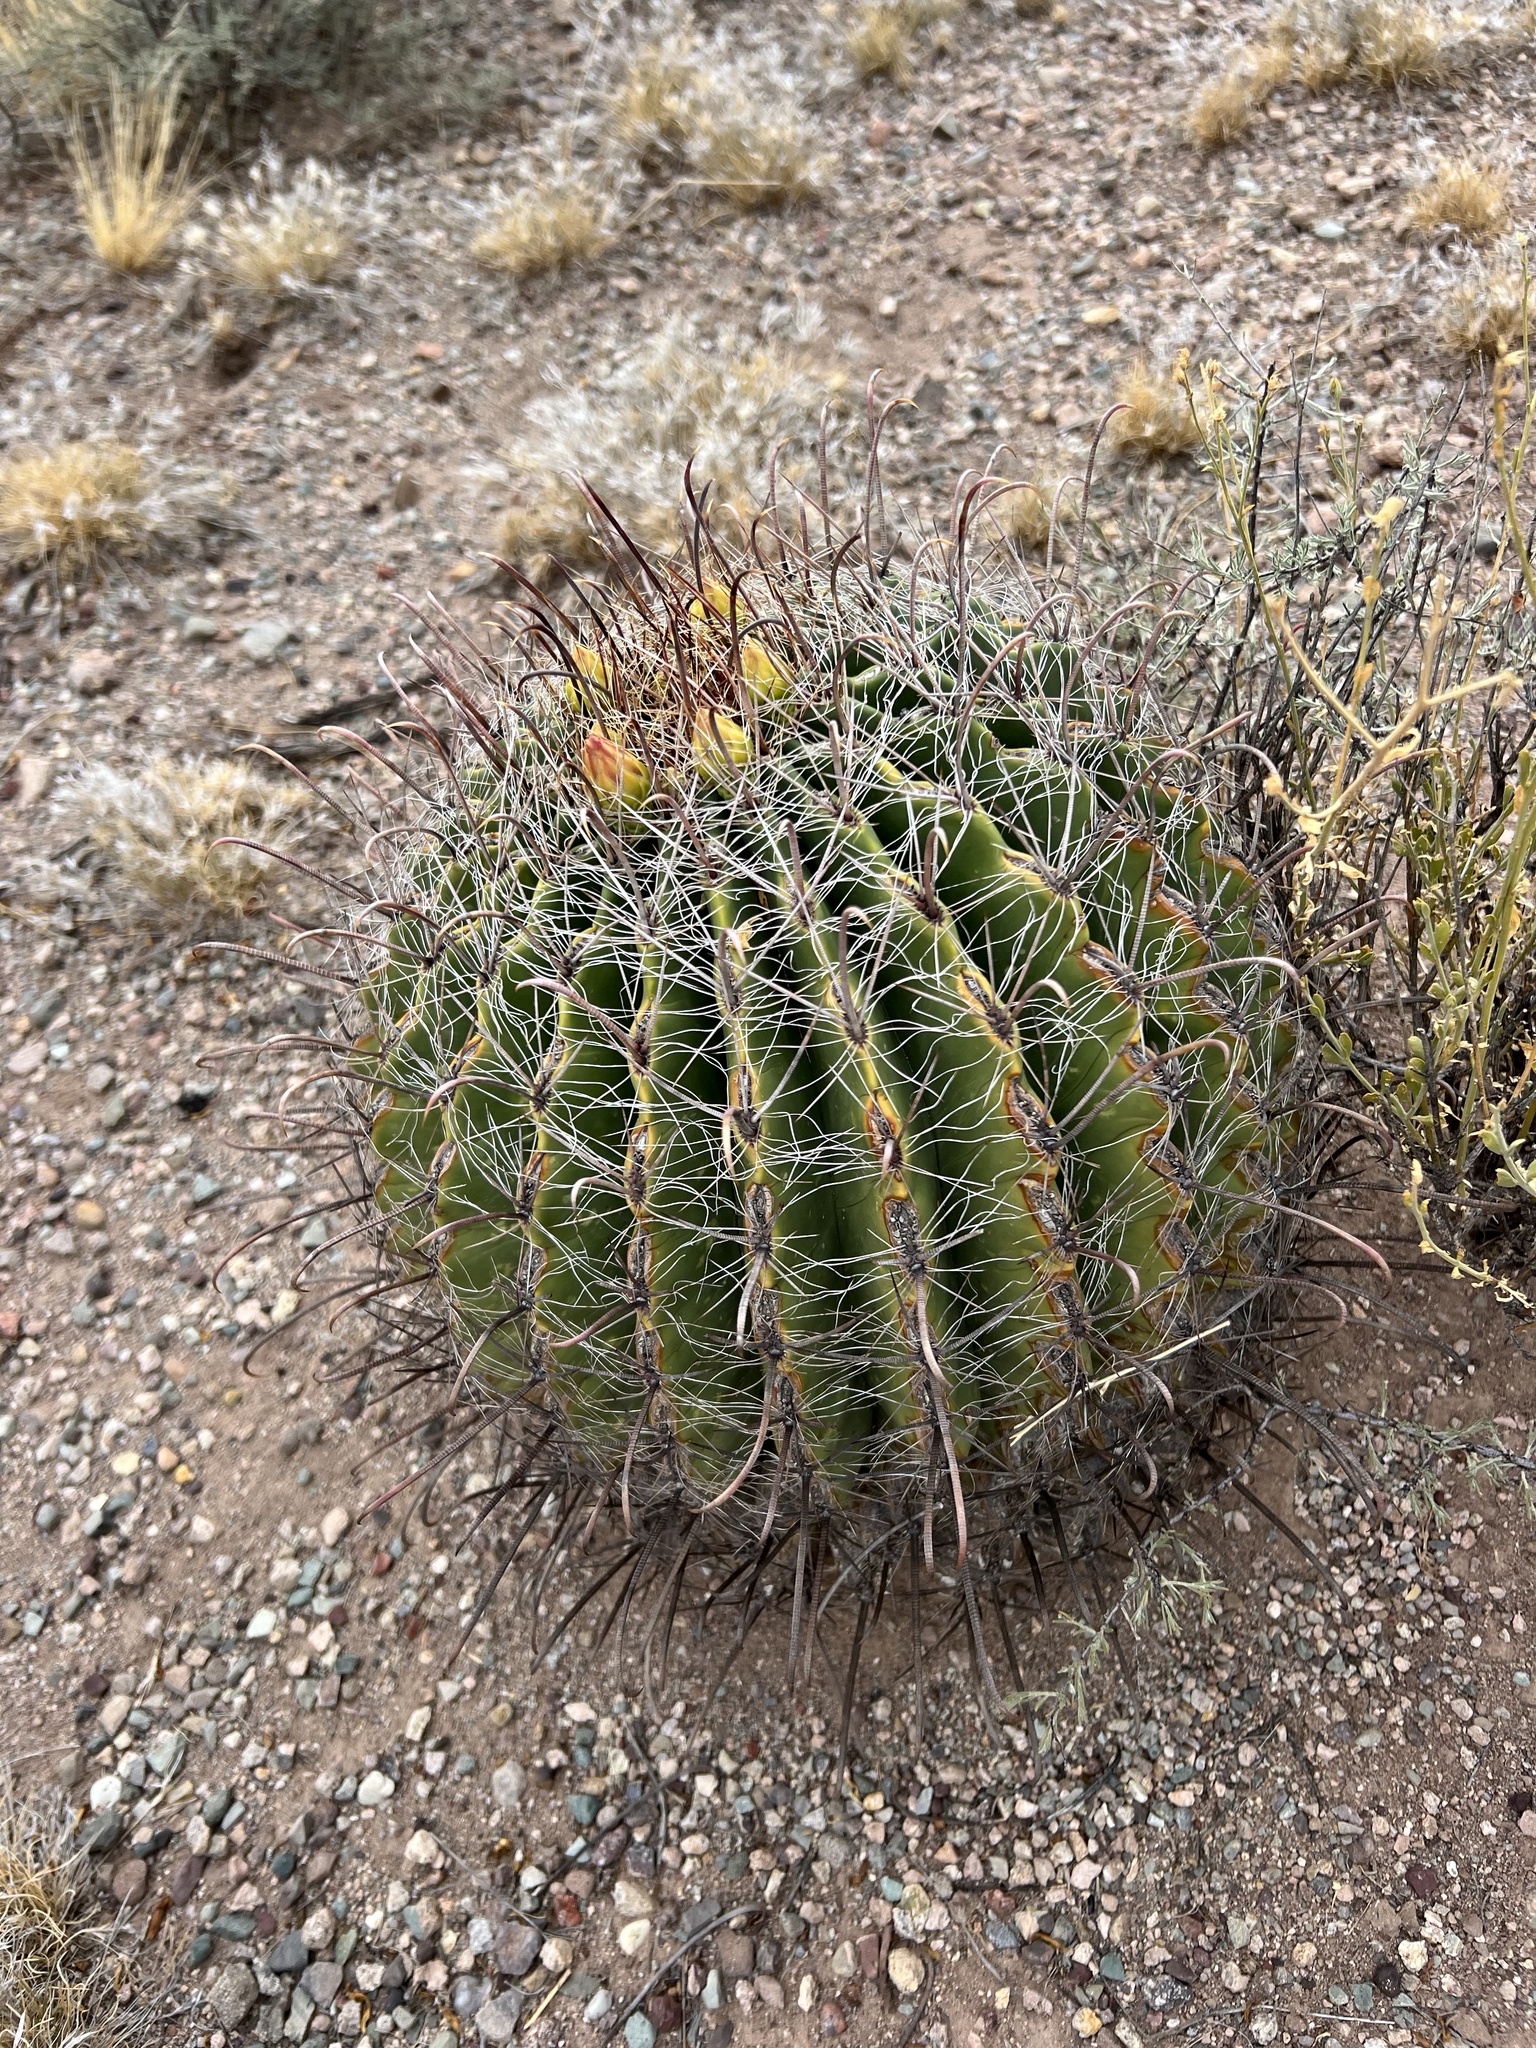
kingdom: Plantae
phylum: Tracheophyta
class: Magnoliopsida
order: Caryophyllales
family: Cactaceae
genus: Ferocactus
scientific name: Ferocactus wislizeni
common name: Candy barrel cactus
